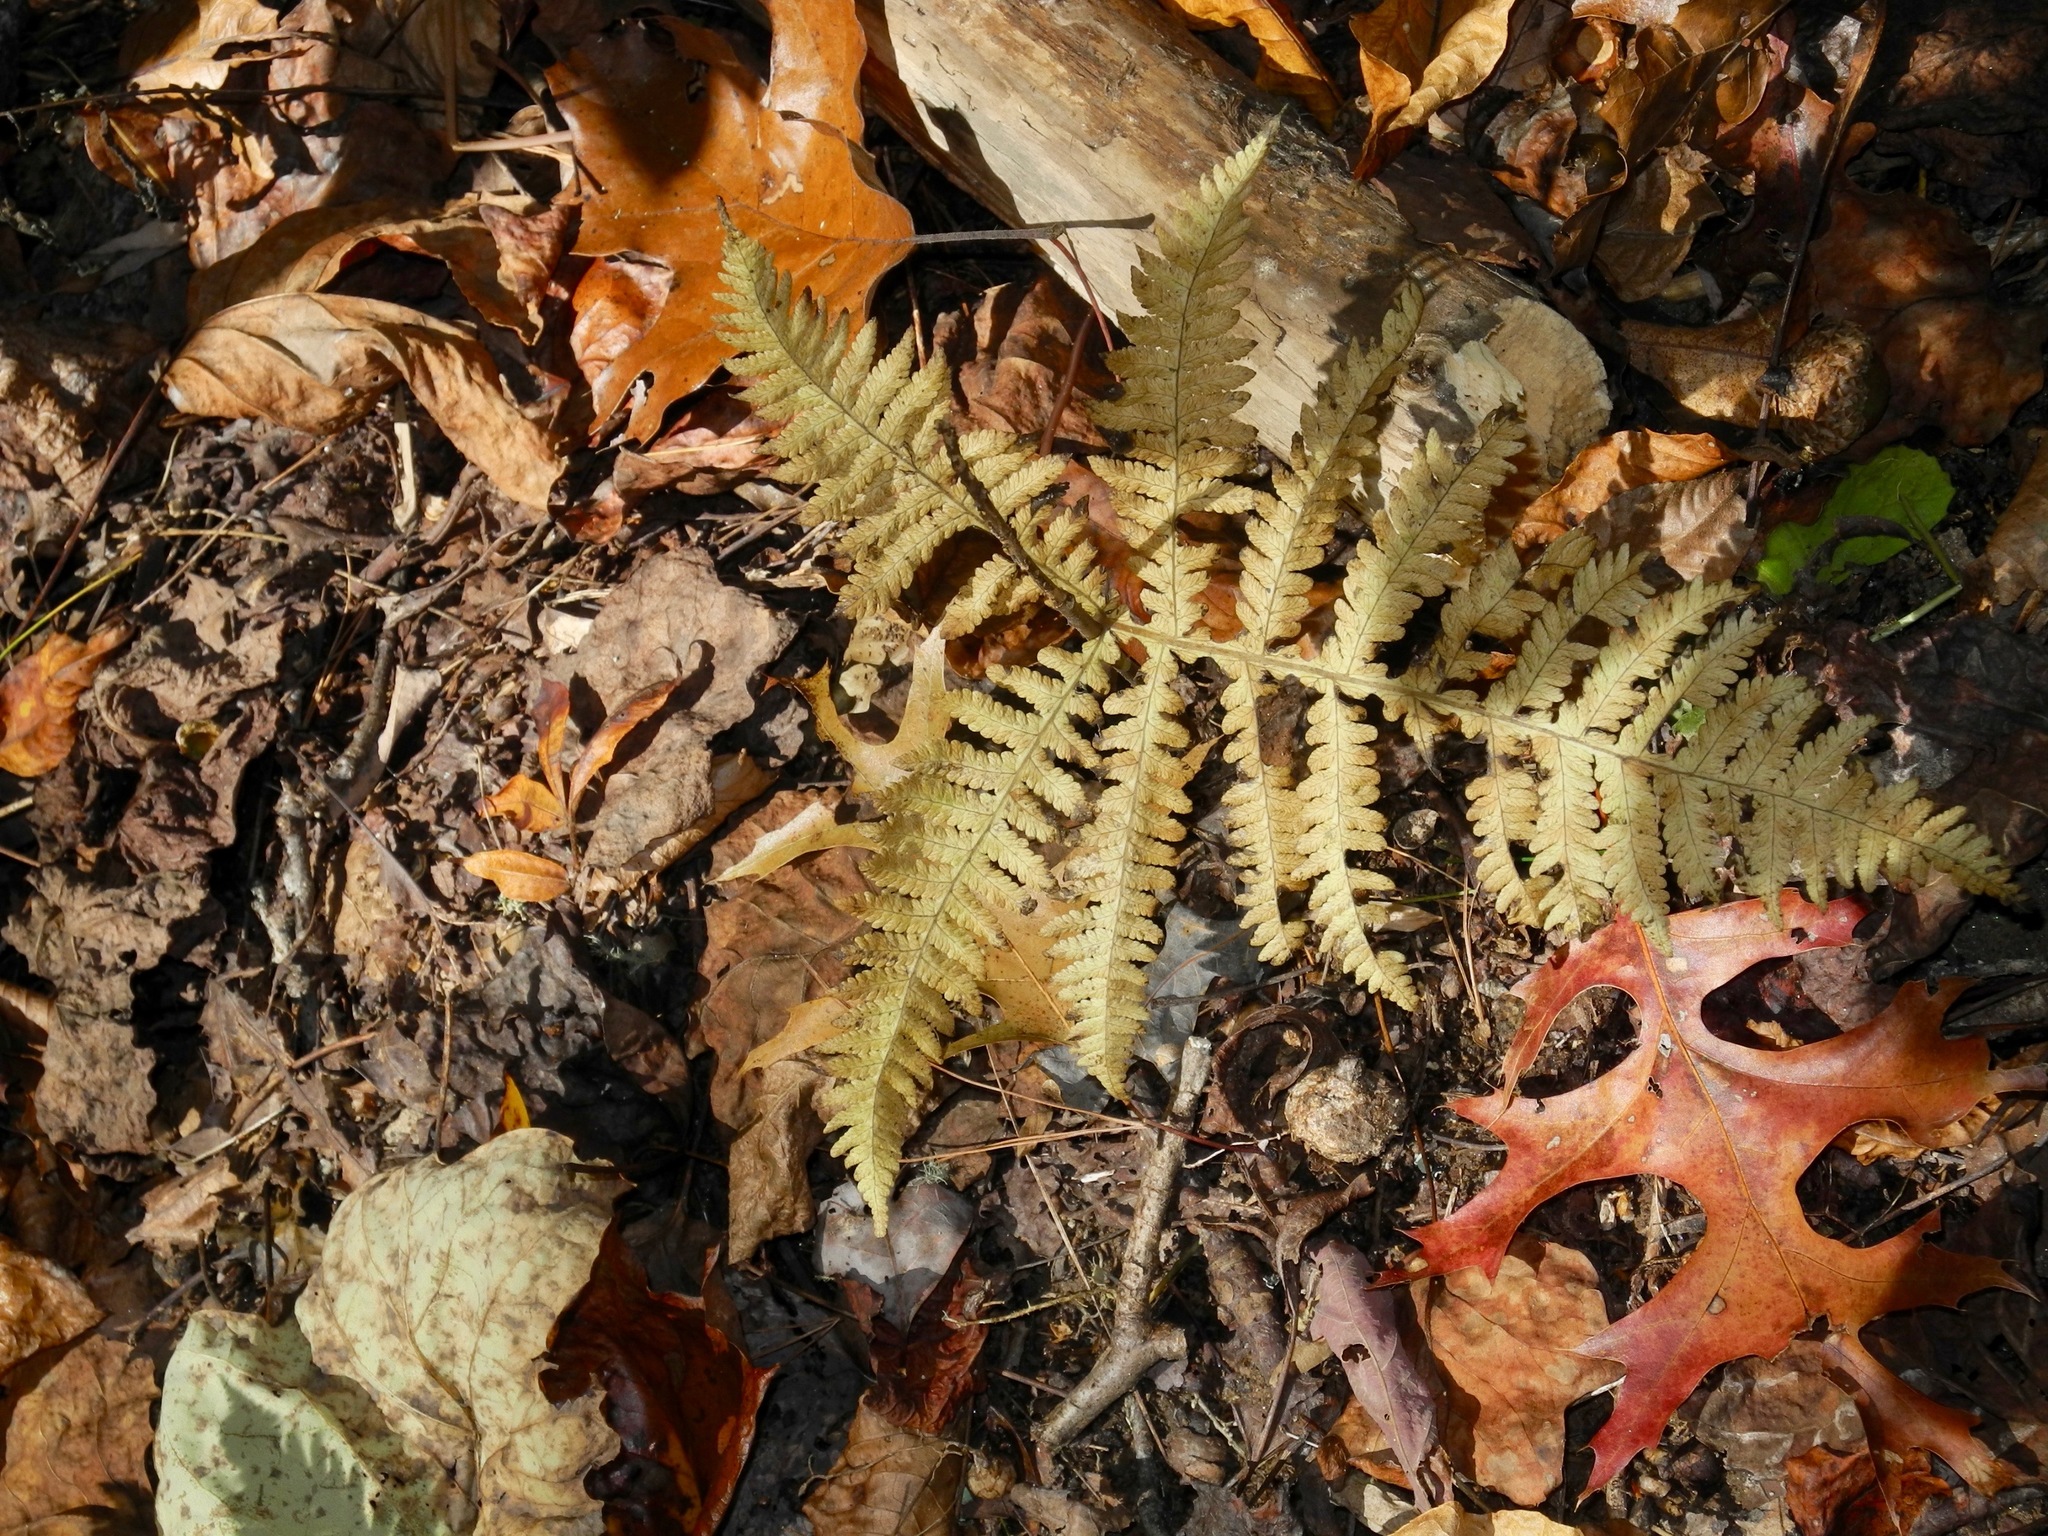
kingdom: Plantae
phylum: Tracheophyta
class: Polypodiopsida
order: Polypodiales
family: Thelypteridaceae
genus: Phegopteris
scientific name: Phegopteris hexagonoptera
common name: Broad beech fern
